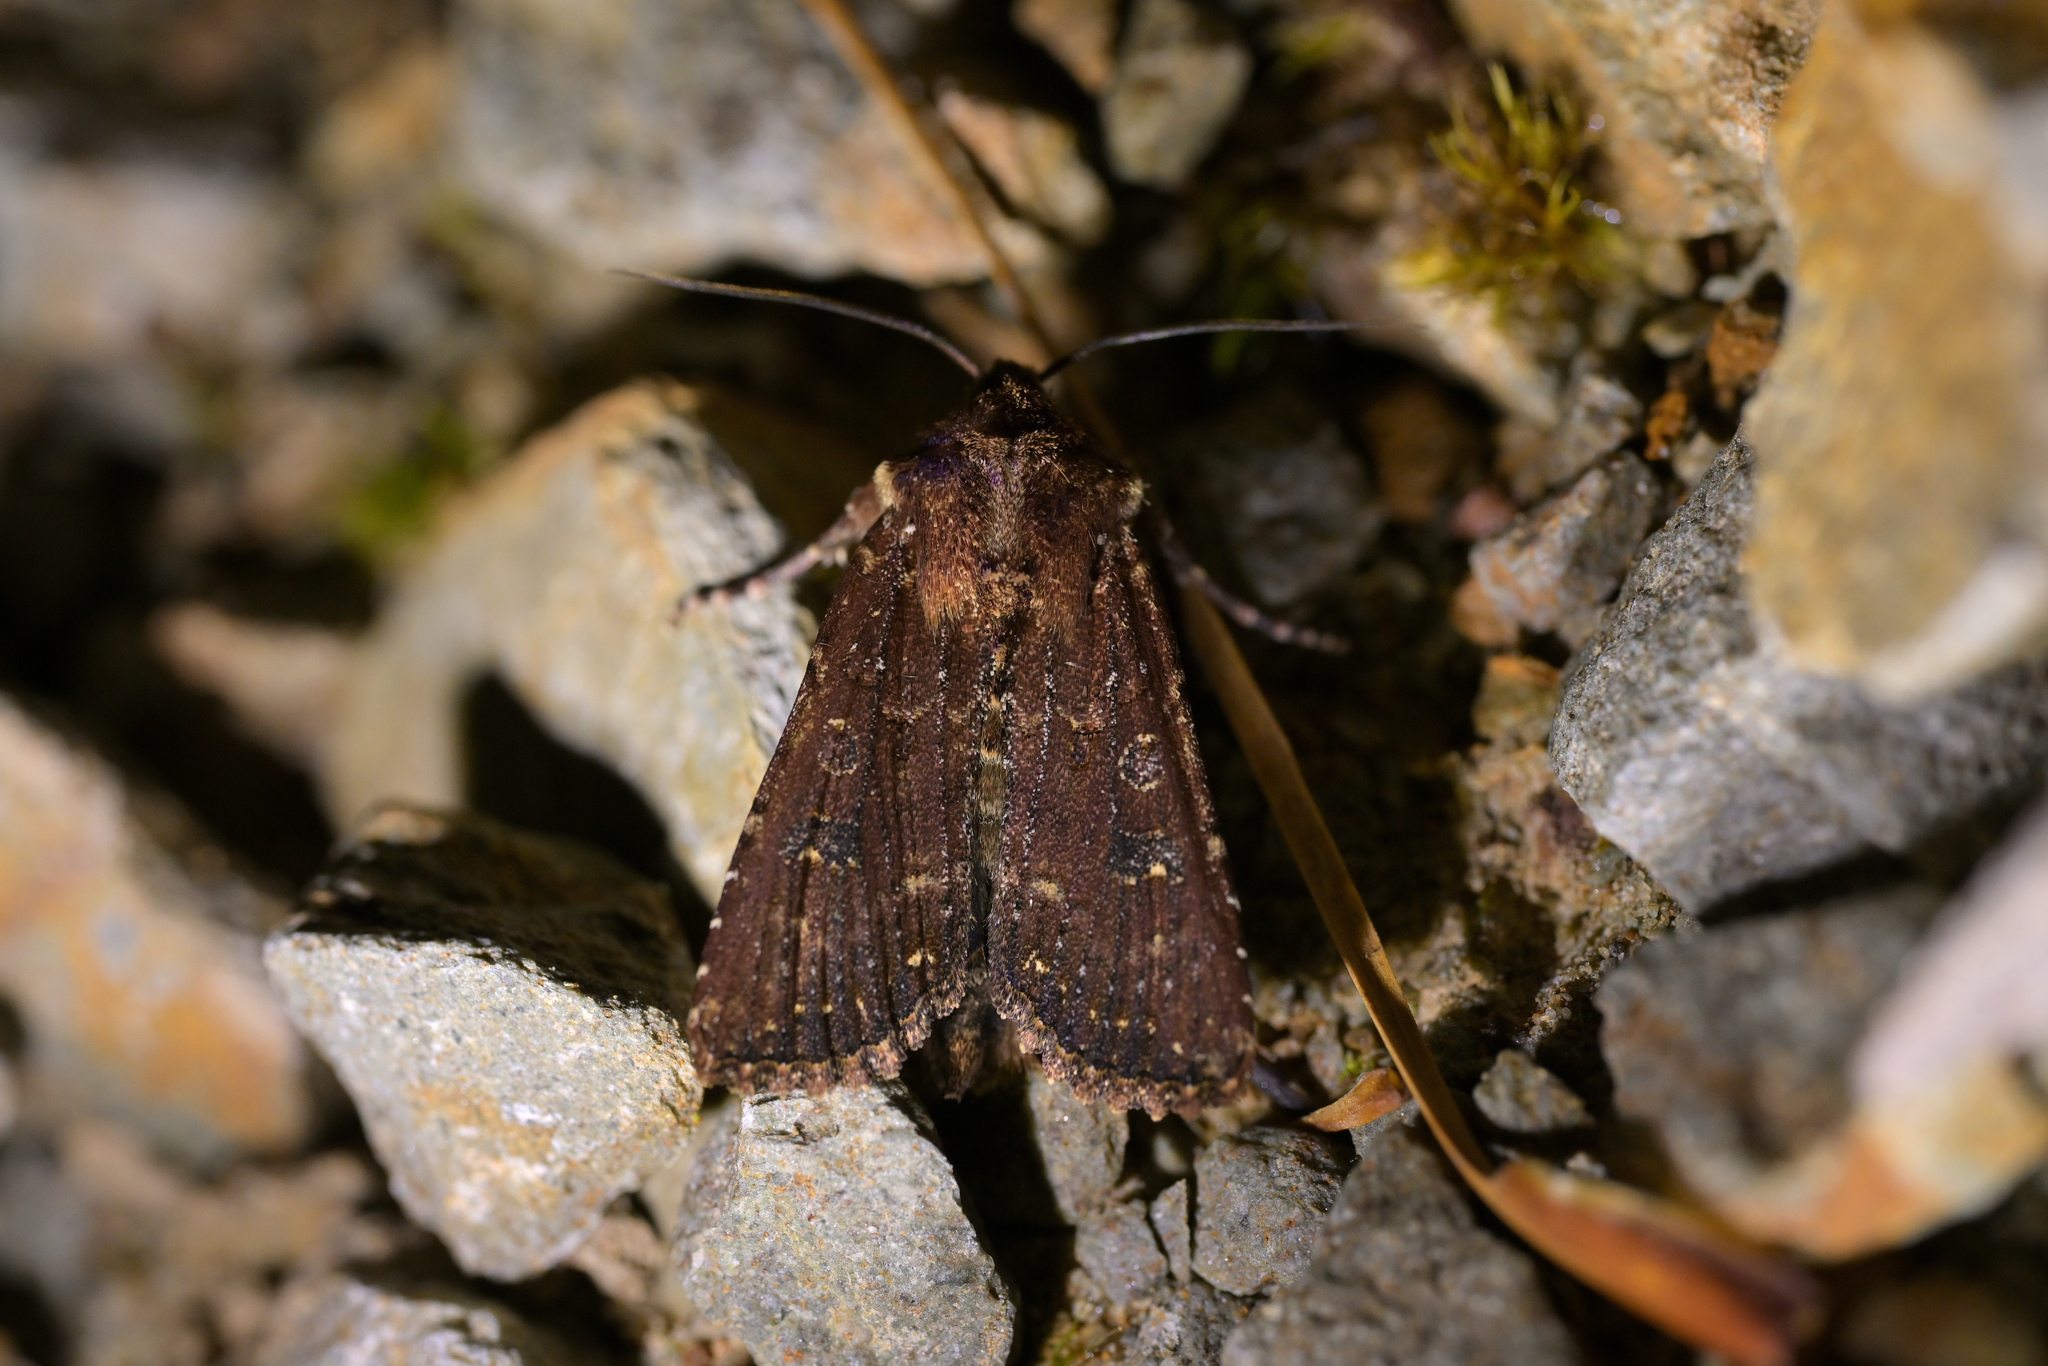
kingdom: Animalia
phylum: Arthropoda
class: Insecta
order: Lepidoptera
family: Noctuidae
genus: Ichneutica
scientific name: Ichneutica mustulenta
